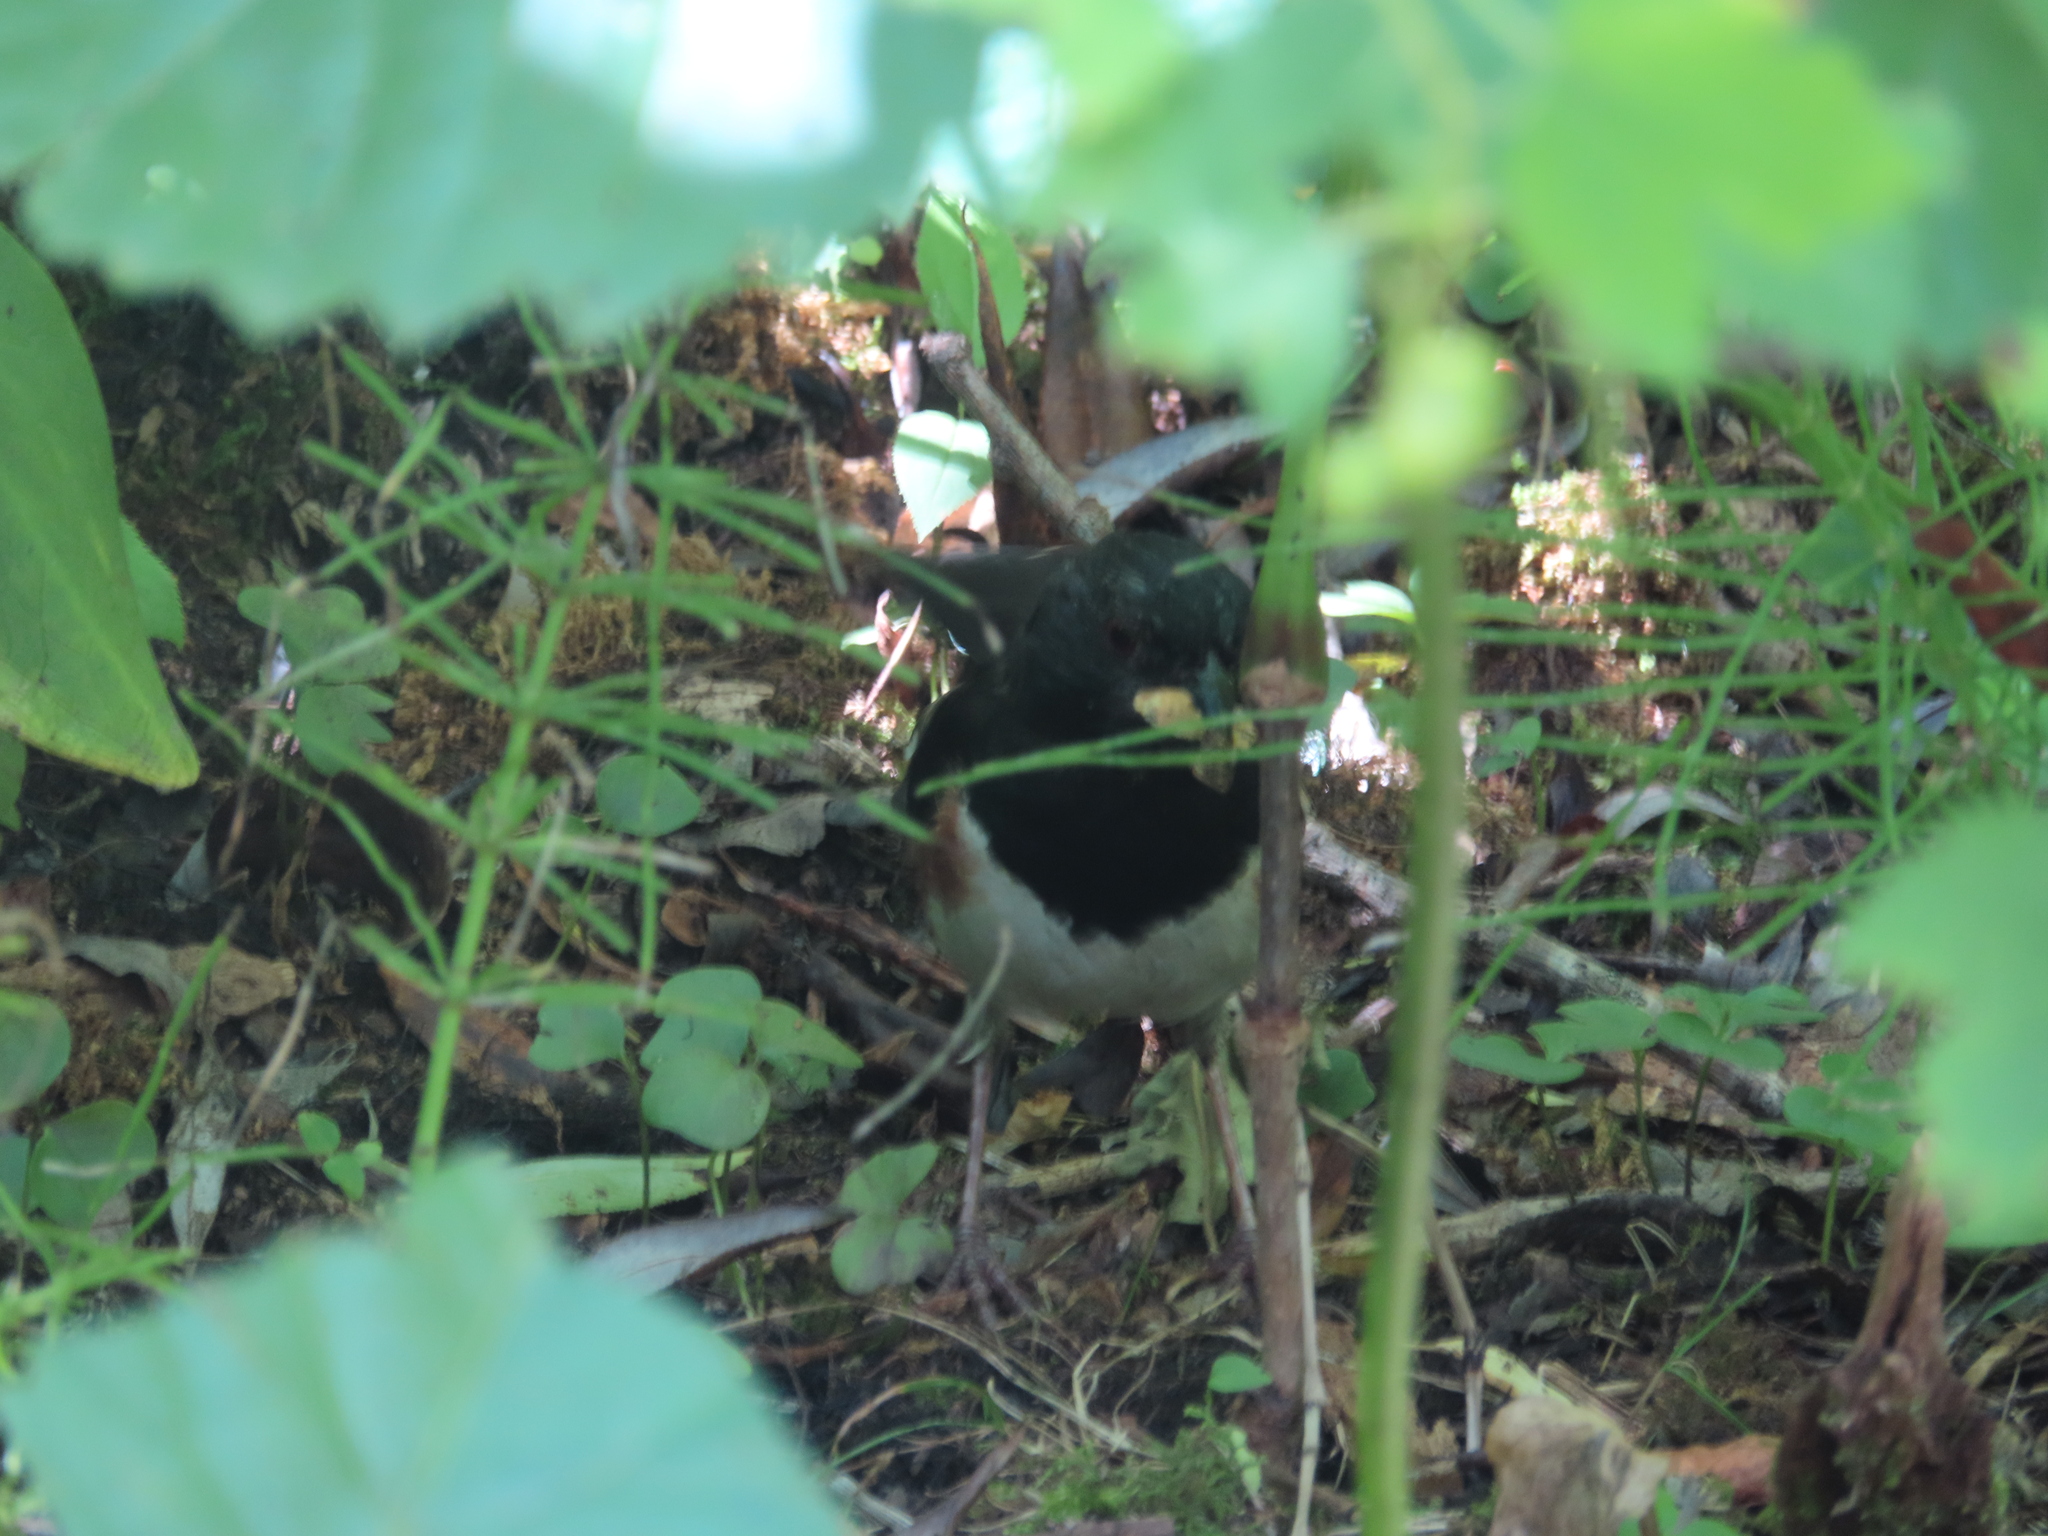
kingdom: Animalia
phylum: Chordata
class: Aves
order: Passeriformes
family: Passerellidae
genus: Pipilo
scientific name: Pipilo erythrophthalmus
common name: Eastern towhee
